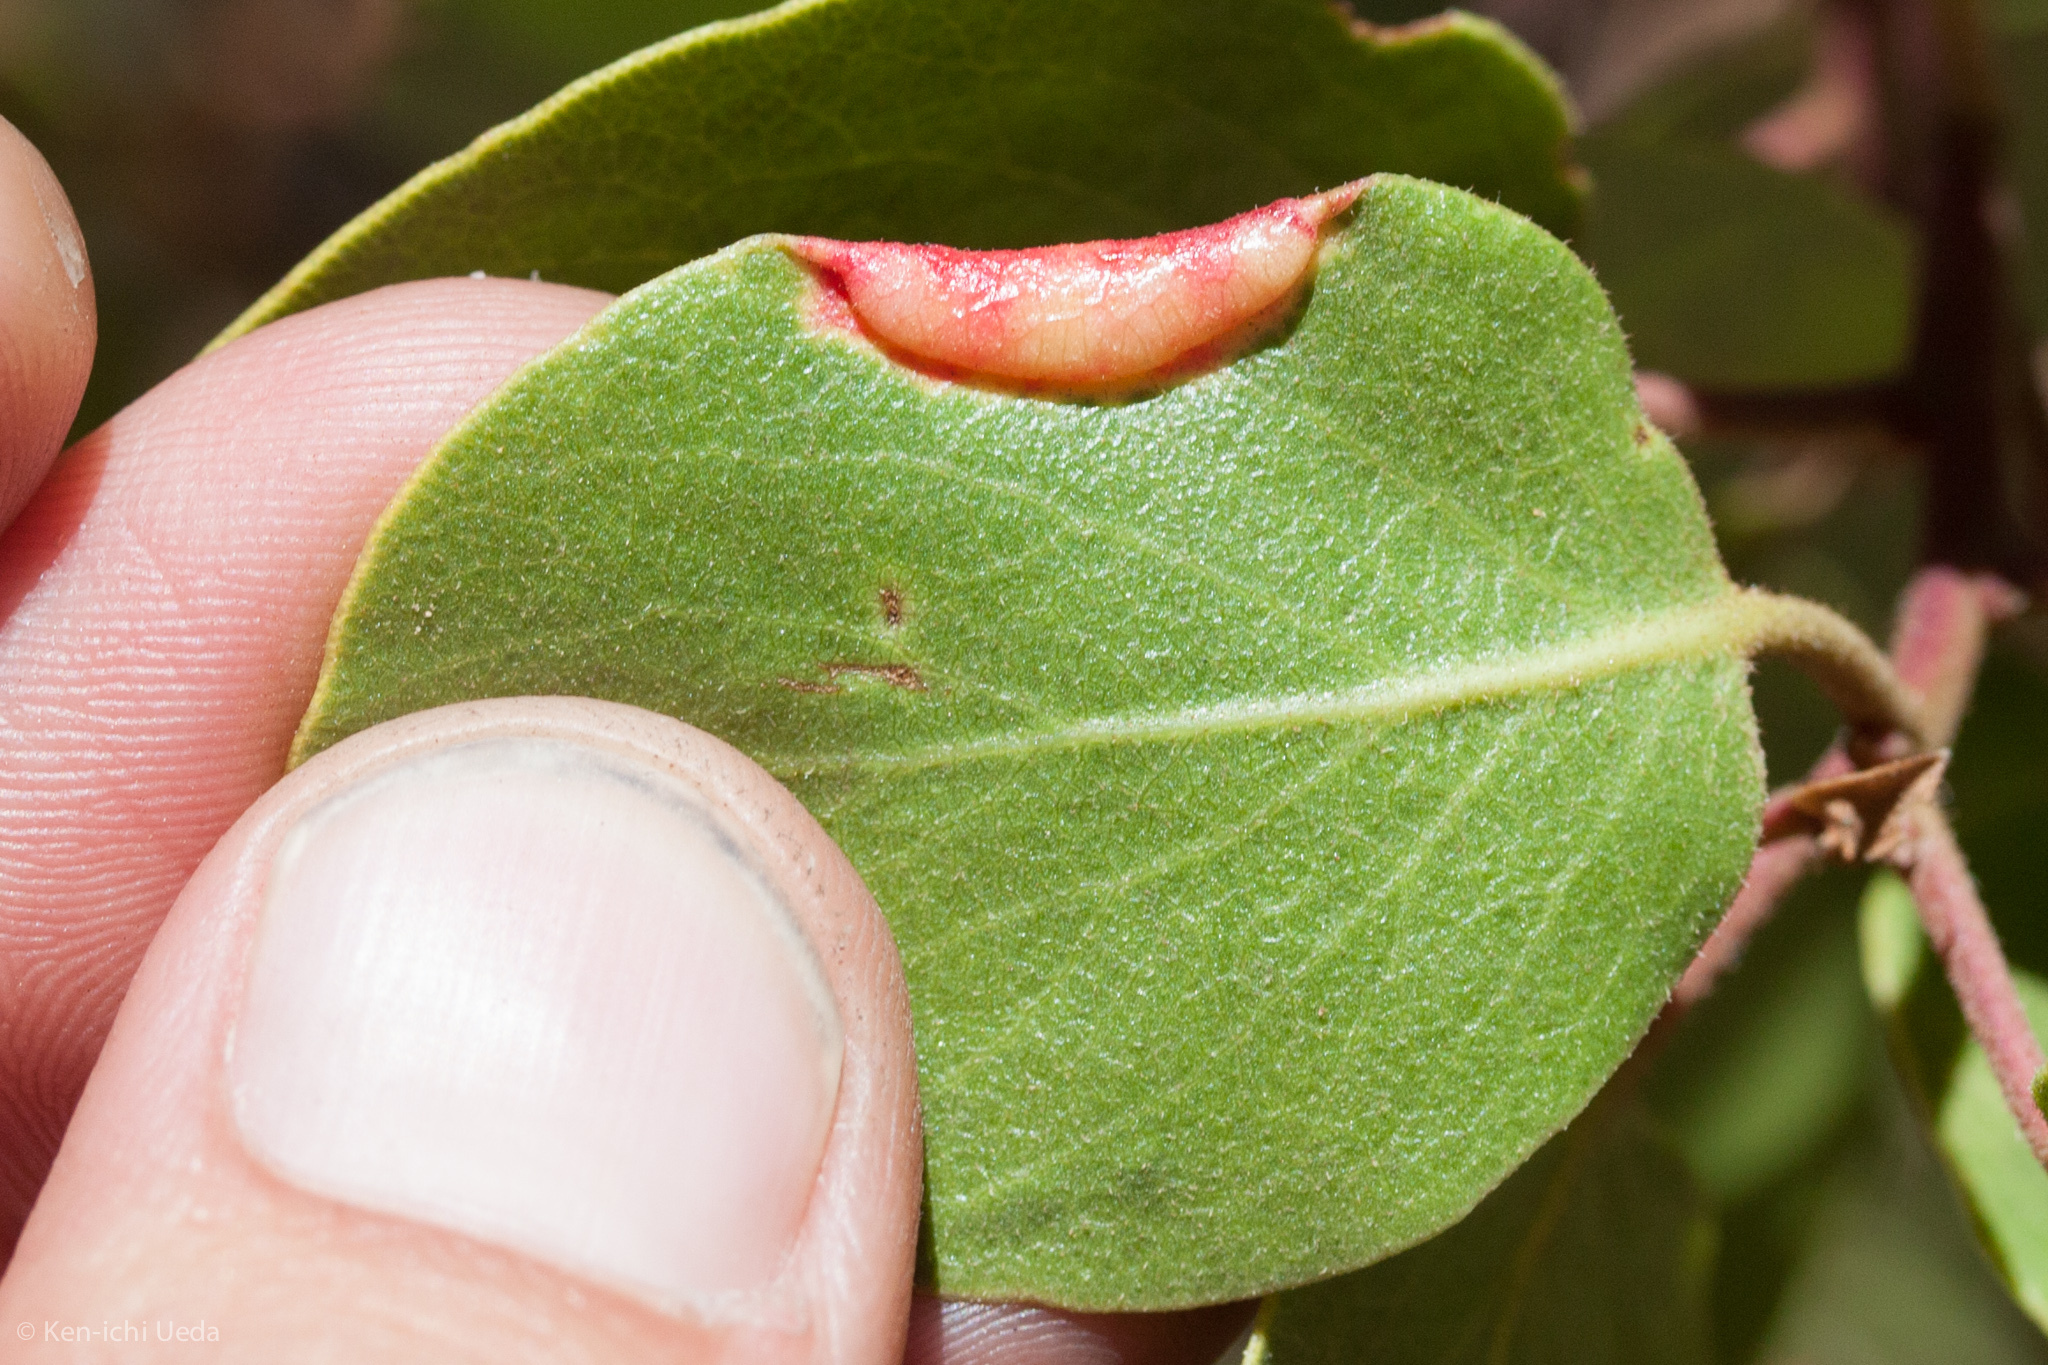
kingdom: Animalia
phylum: Arthropoda
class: Insecta
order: Hemiptera
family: Aphididae
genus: Tamalia
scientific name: Tamalia coweni
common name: Manzanita leafgall aphid
